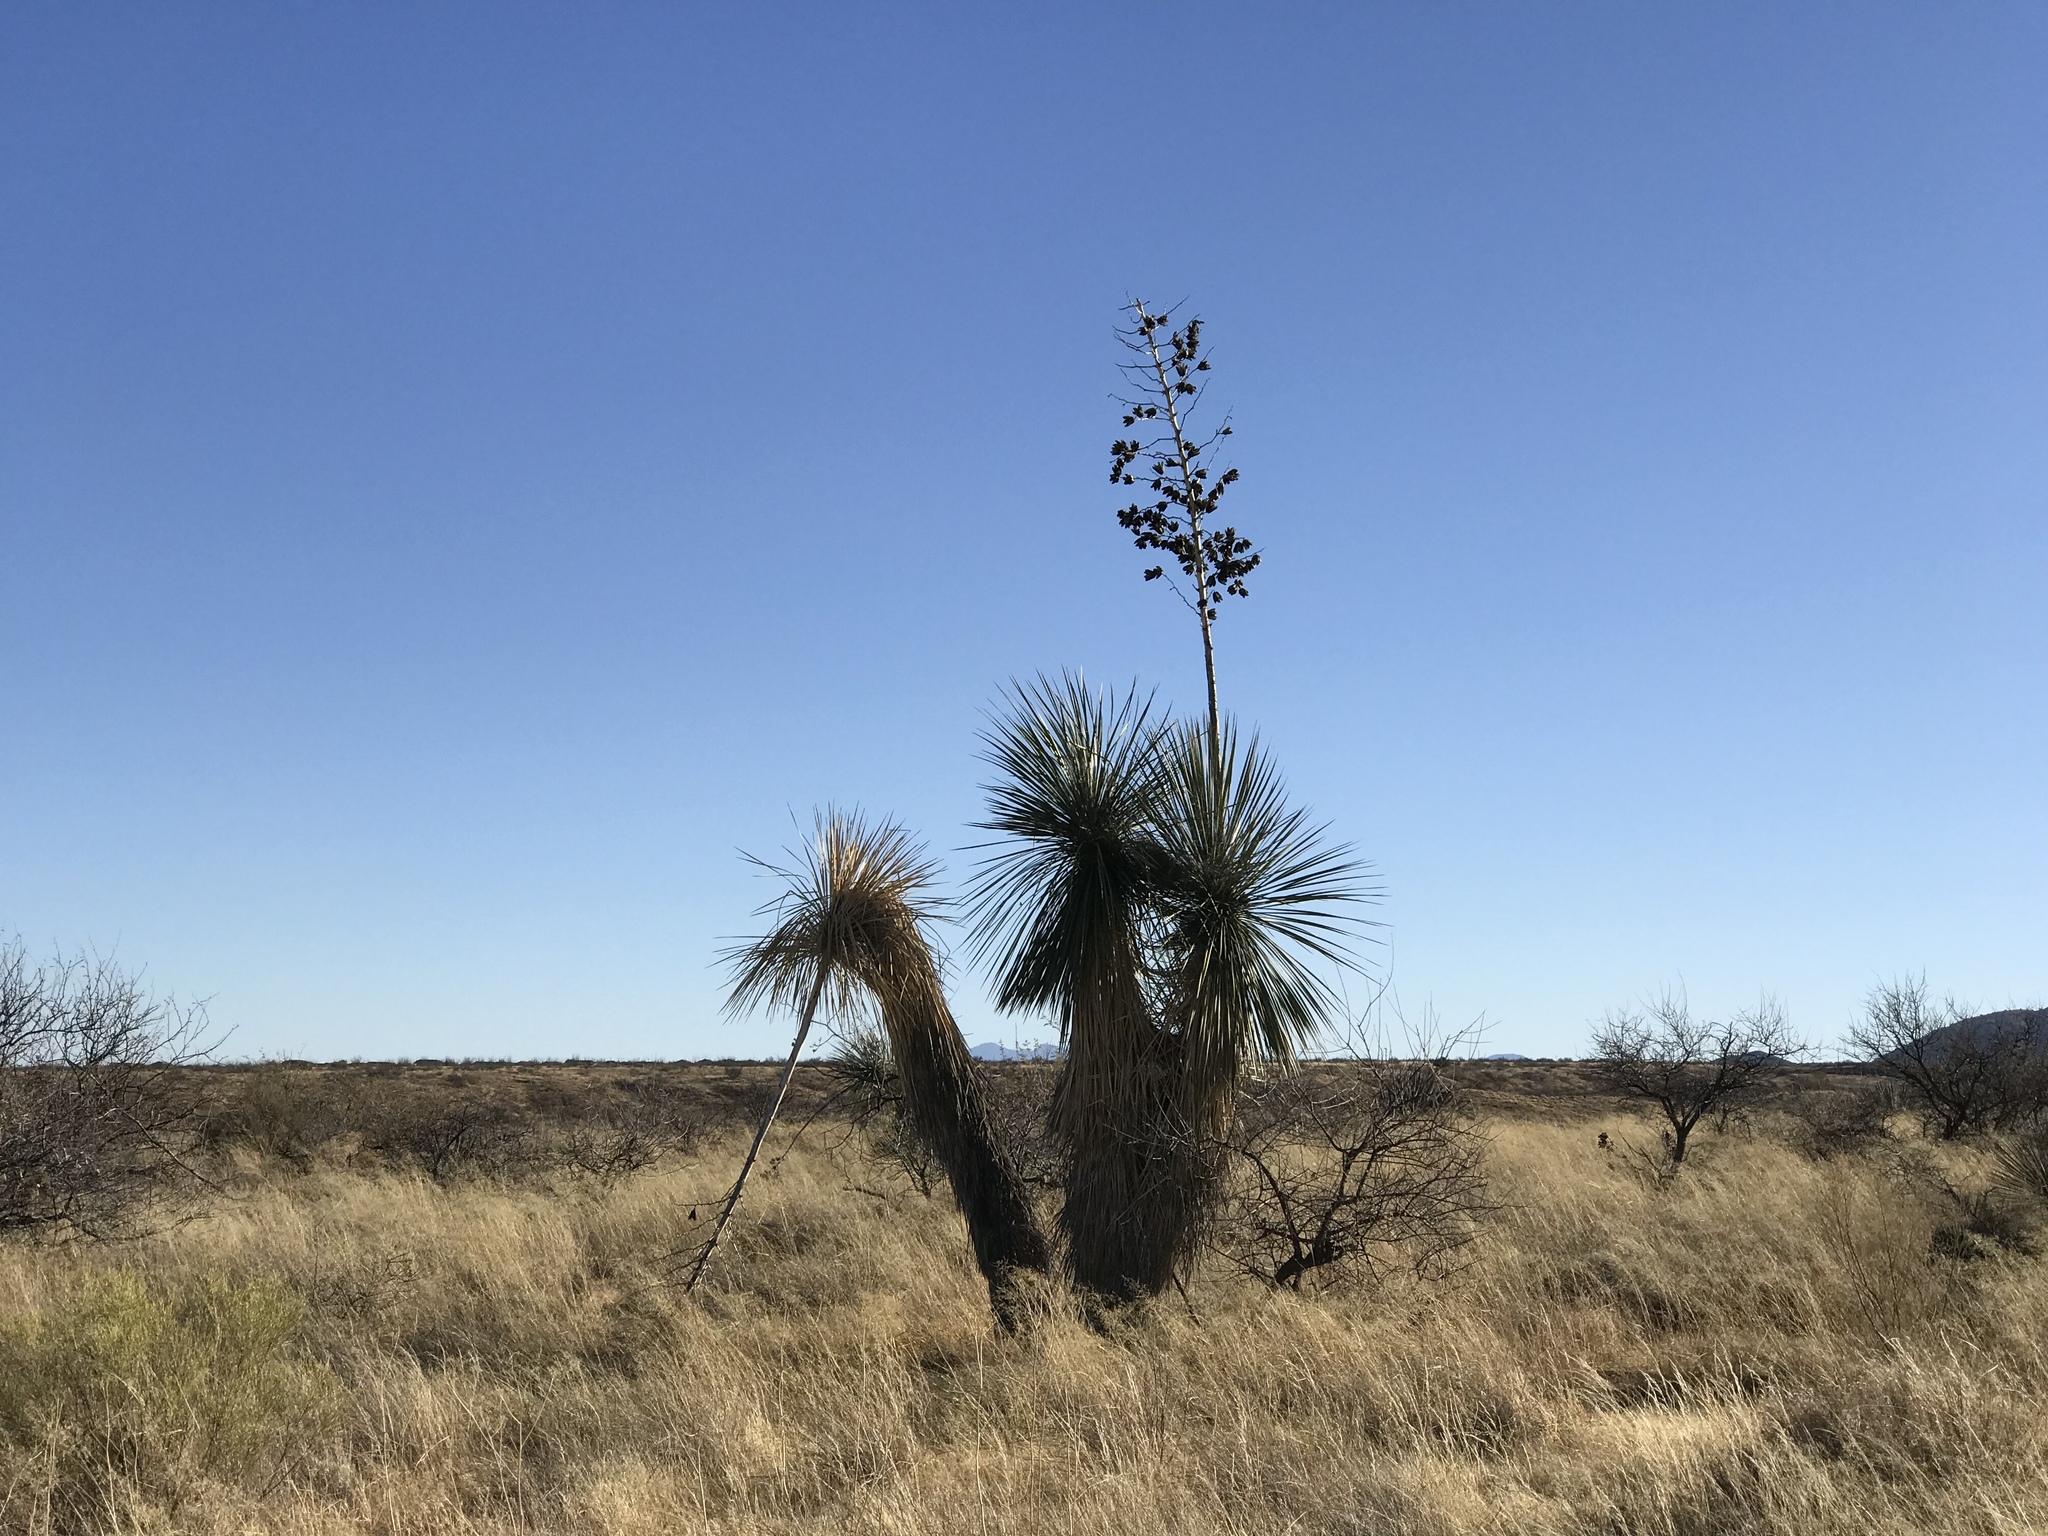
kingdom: Plantae
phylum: Tracheophyta
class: Liliopsida
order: Asparagales
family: Asparagaceae
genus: Yucca
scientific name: Yucca elata
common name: Palmella
